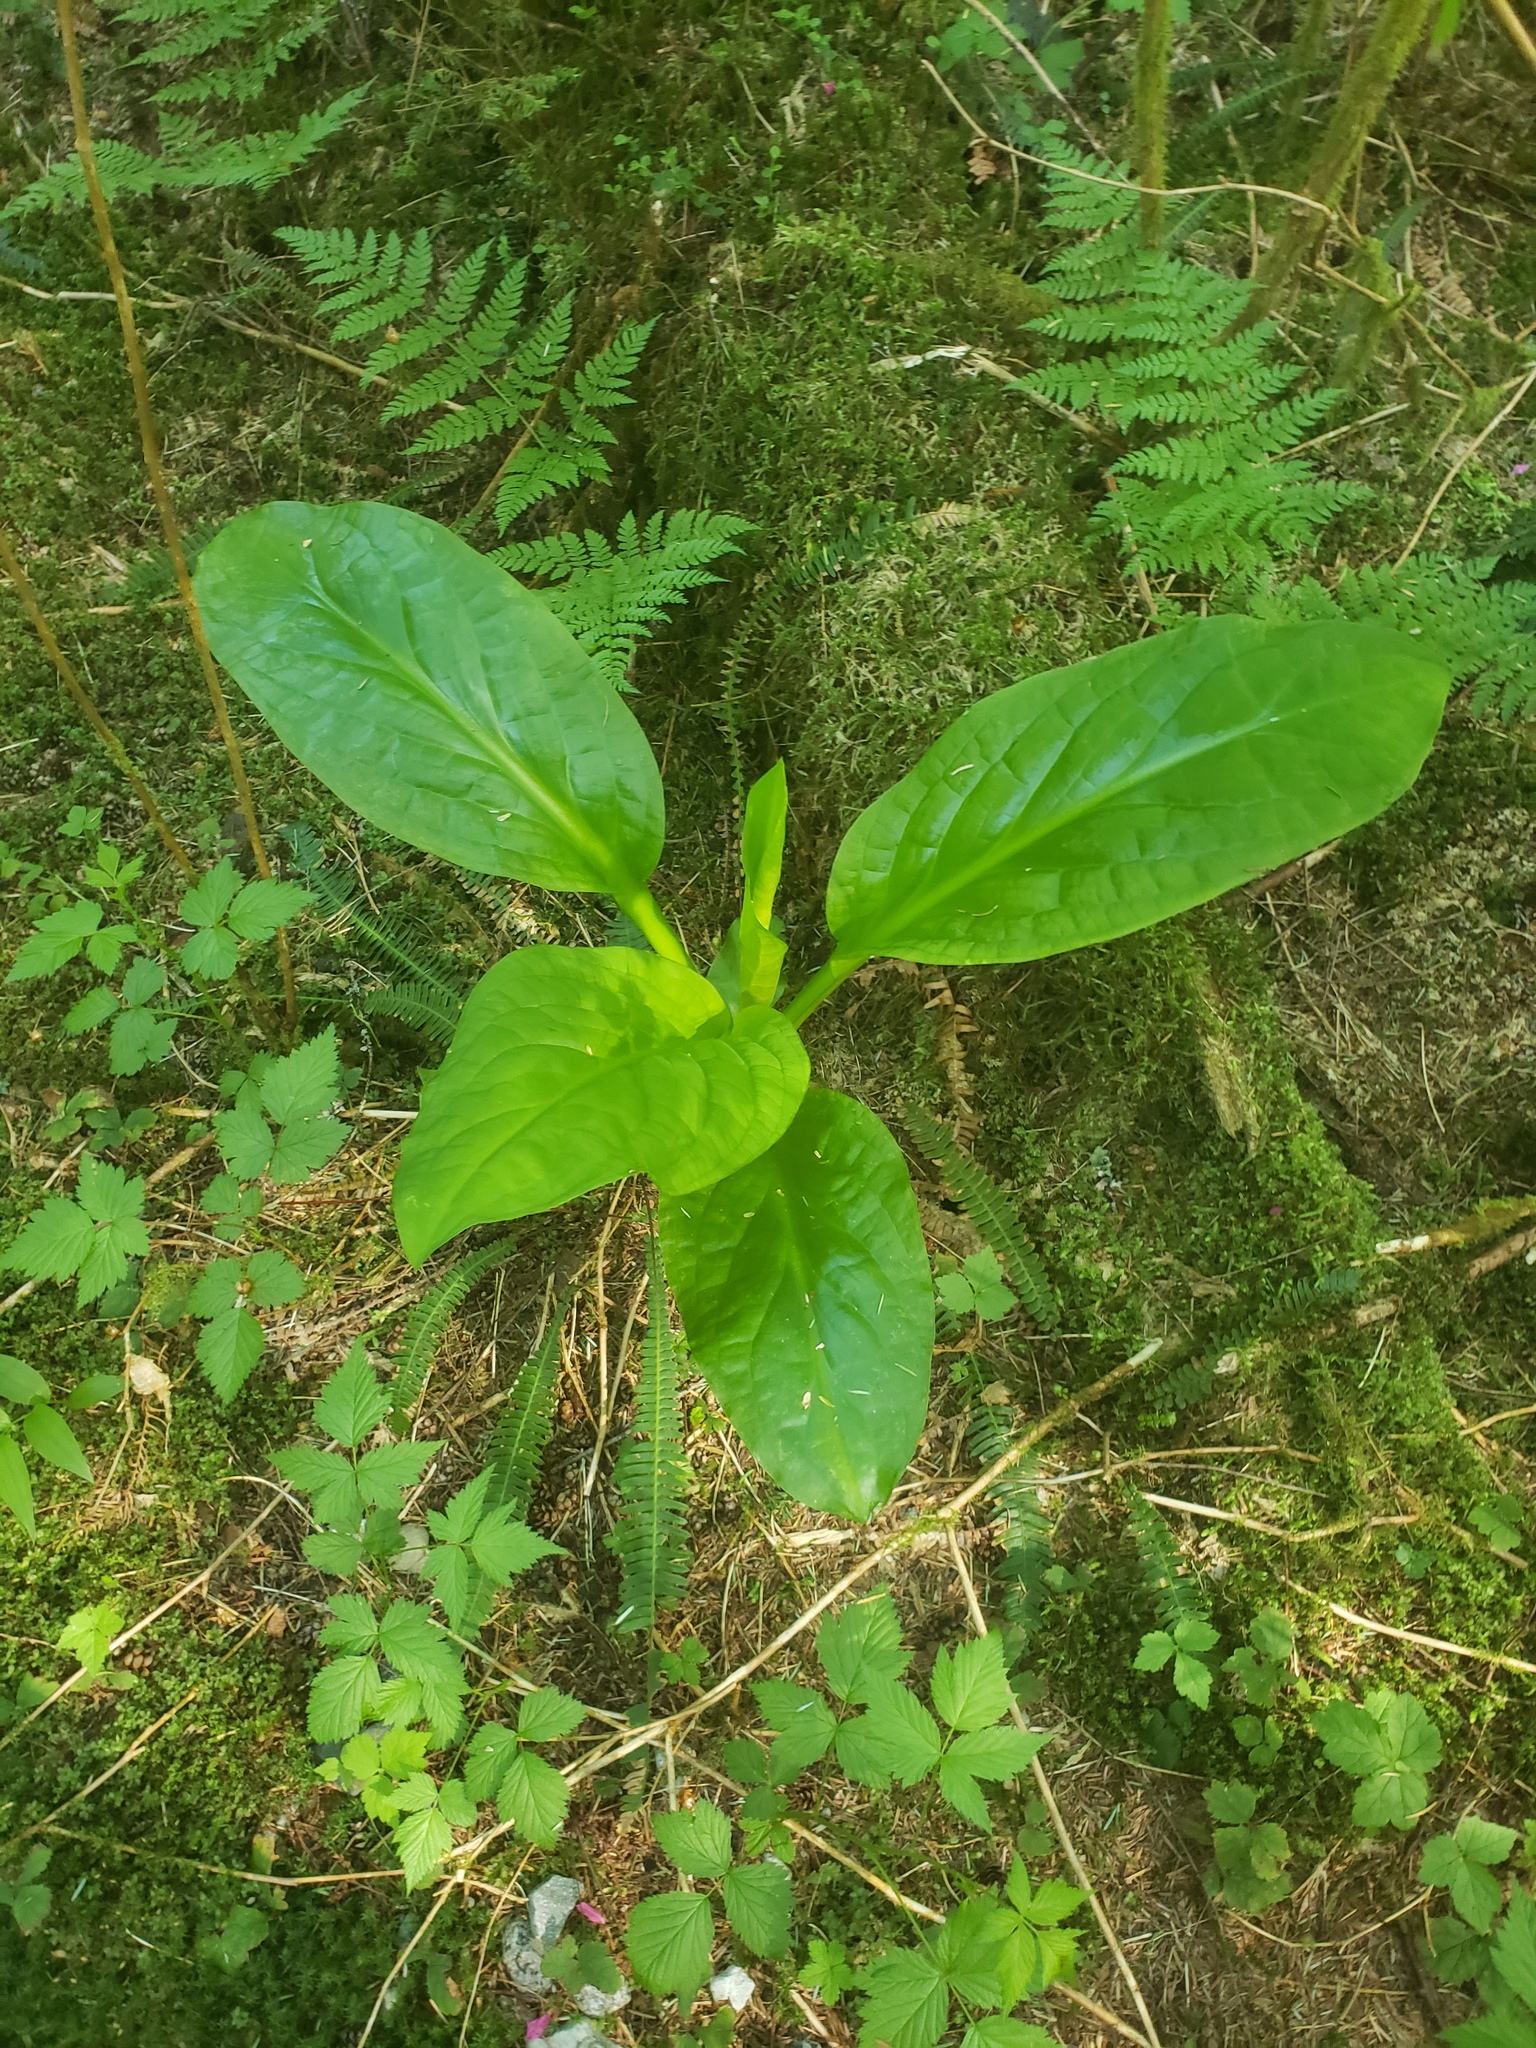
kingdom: Plantae
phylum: Tracheophyta
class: Liliopsida
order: Alismatales
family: Araceae
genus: Lysichiton
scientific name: Lysichiton americanus
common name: American skunk cabbage
